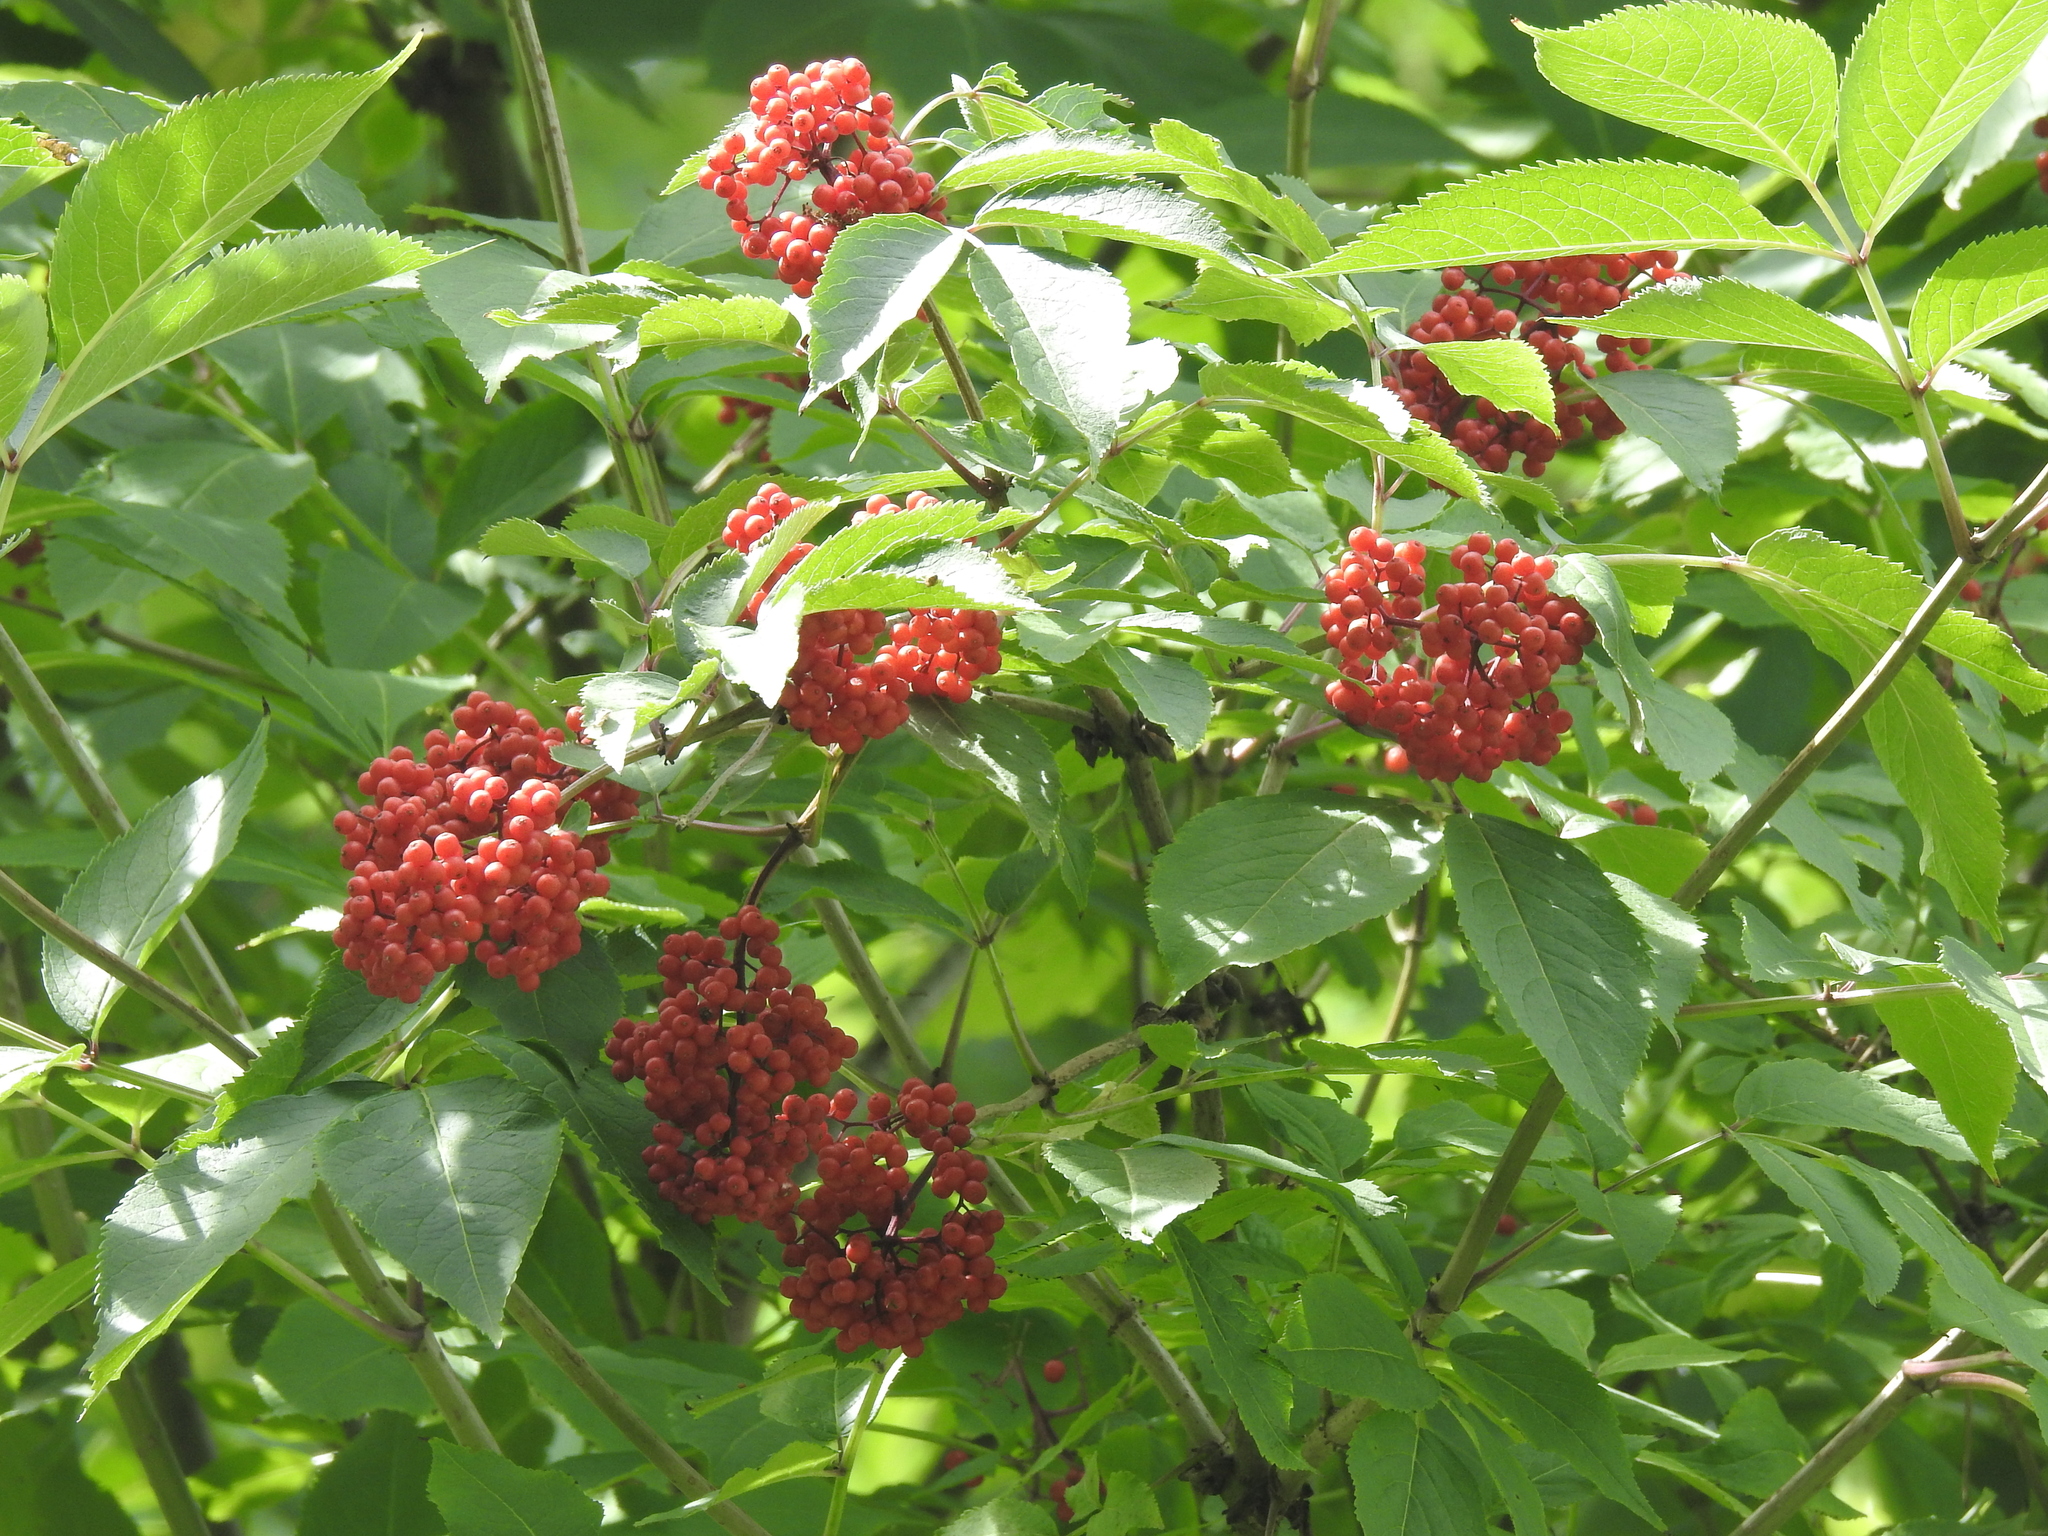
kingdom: Plantae
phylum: Tracheophyta
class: Magnoliopsida
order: Dipsacales
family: Viburnaceae
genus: Sambucus
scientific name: Sambucus racemosa
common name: Red-berried elder
